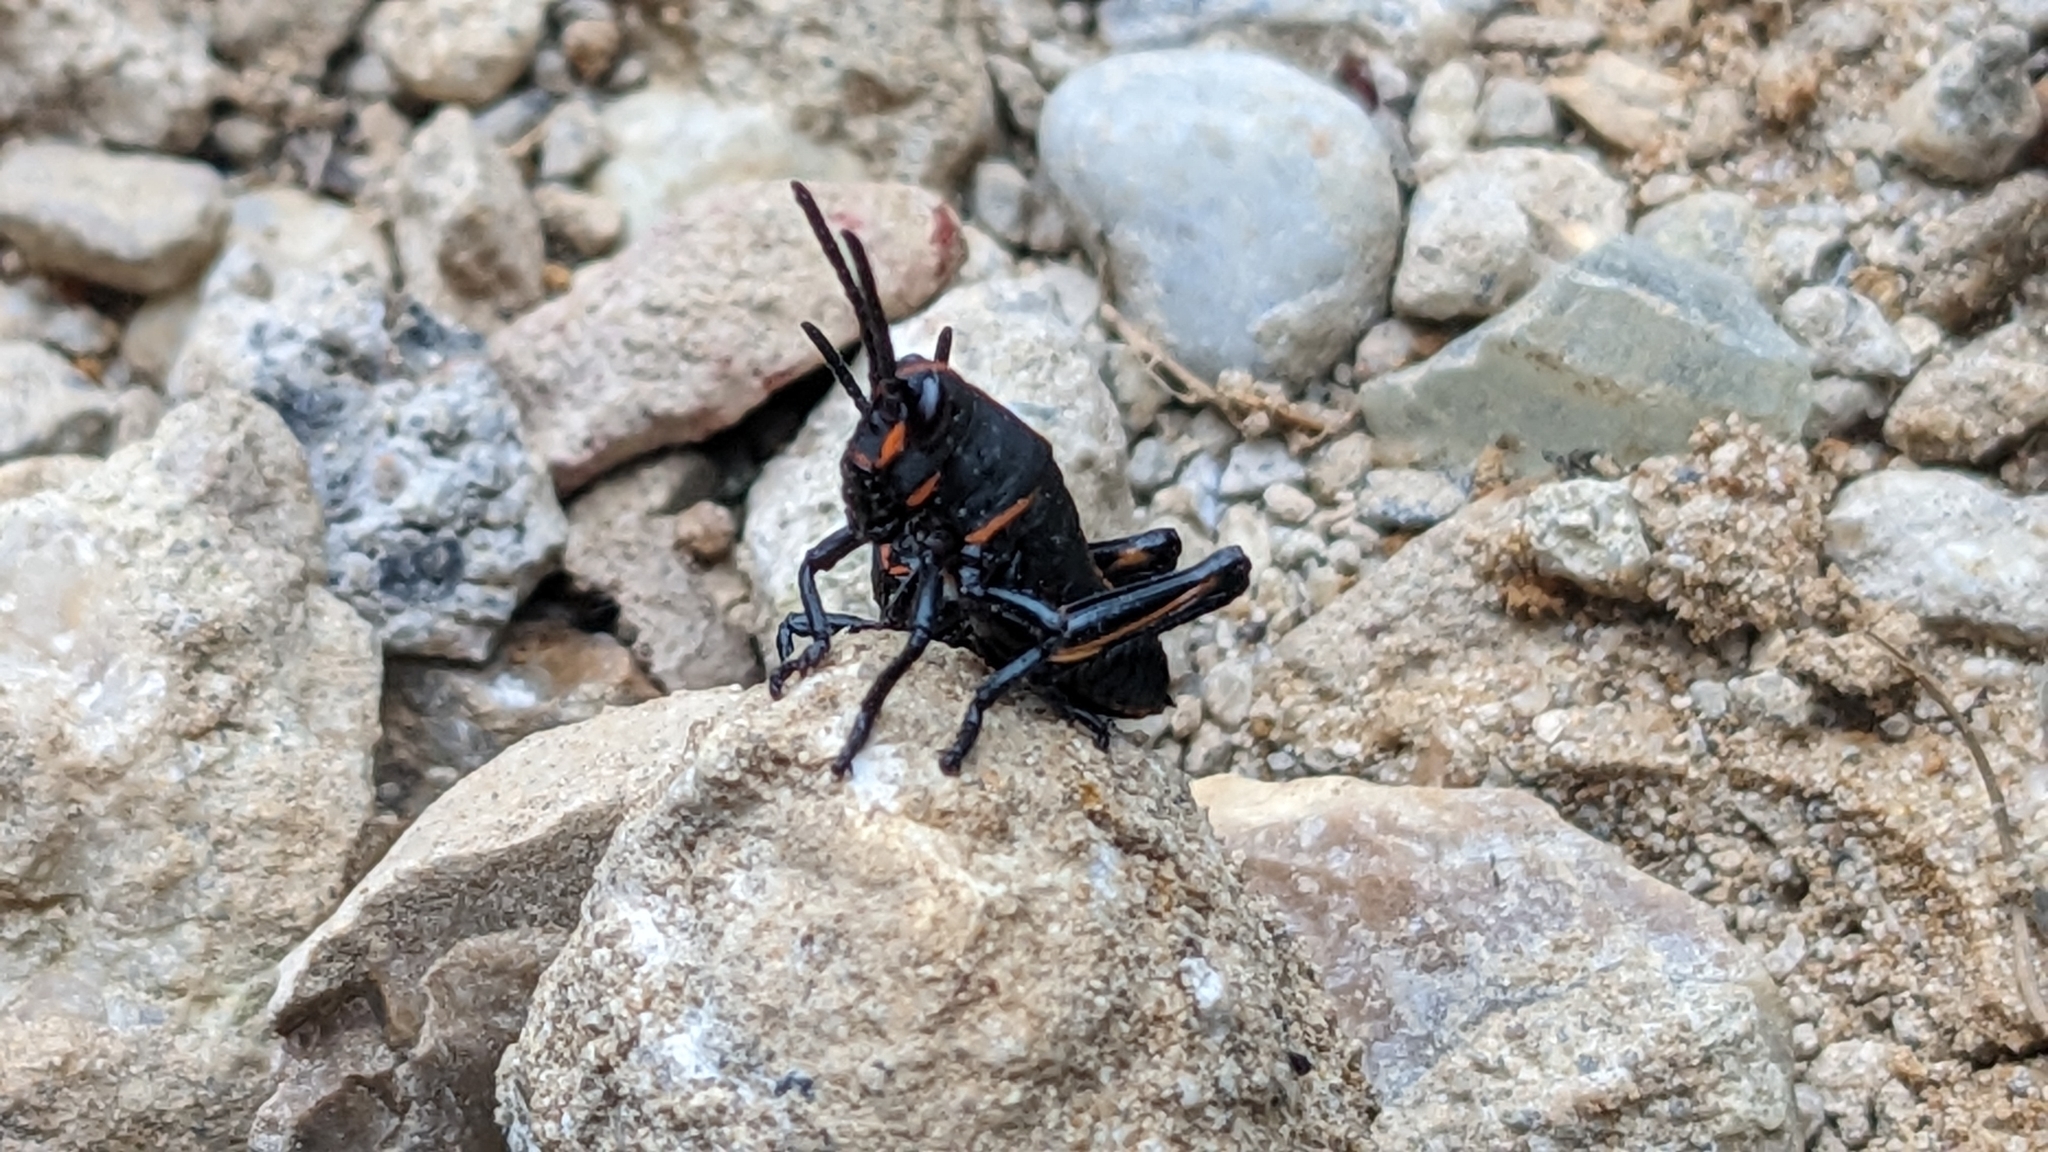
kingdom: Animalia
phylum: Arthropoda
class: Insecta
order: Orthoptera
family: Romaleidae
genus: Romalea
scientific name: Romalea microptera
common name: Eastern lubber grasshopper
